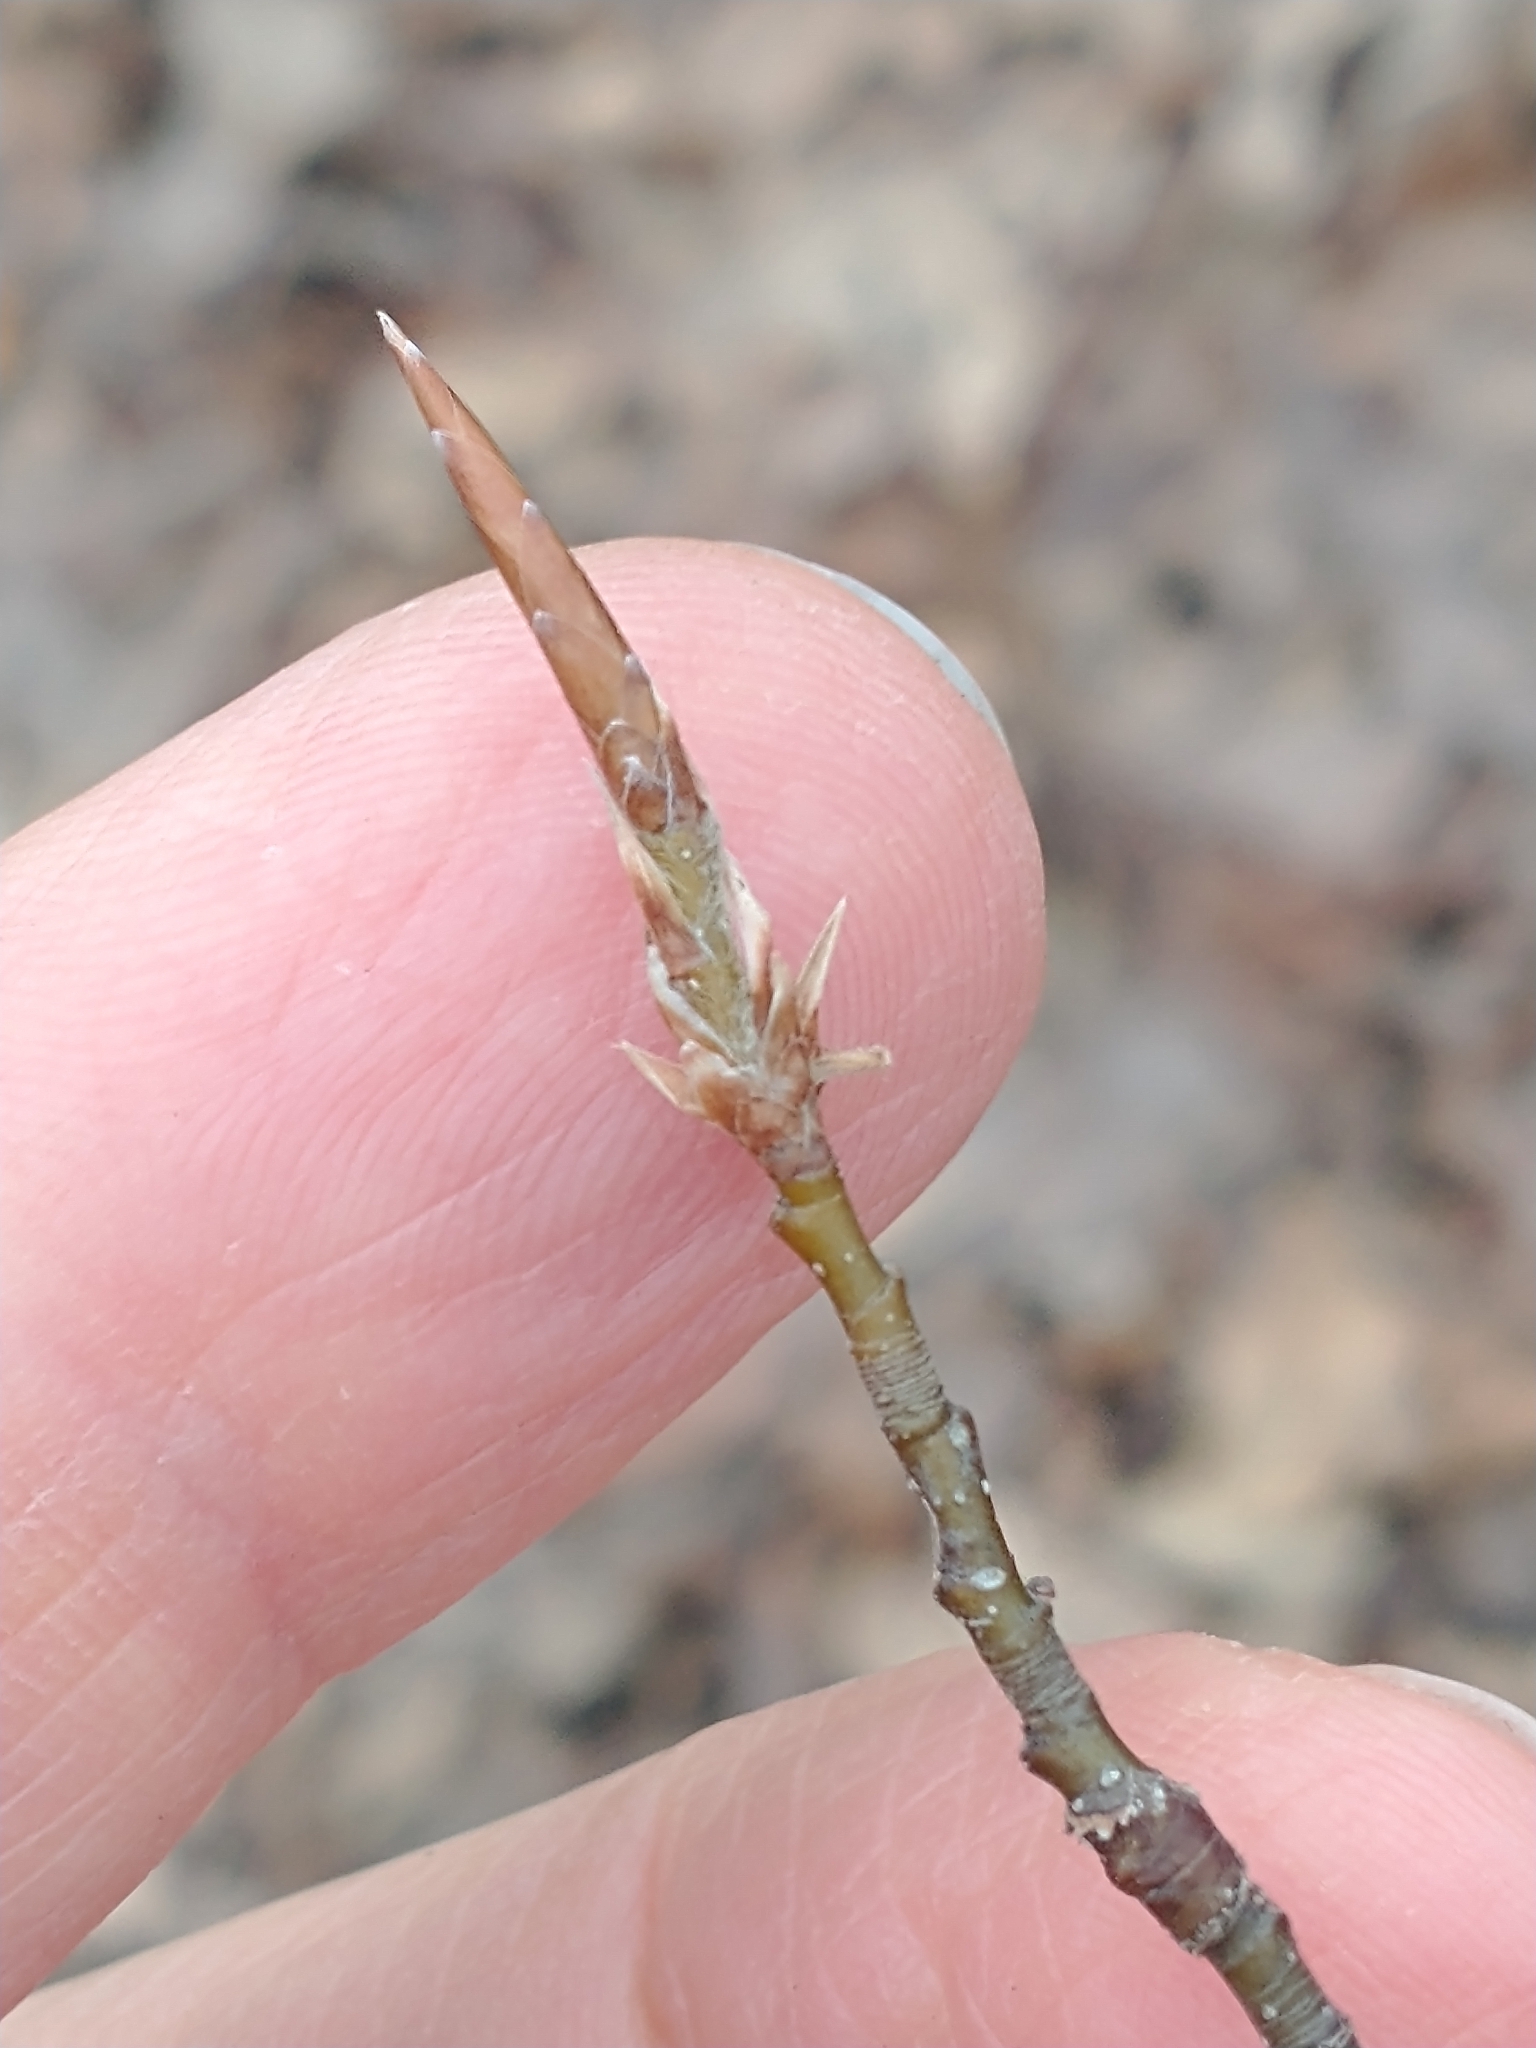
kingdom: Plantae
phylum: Tracheophyta
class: Magnoliopsida
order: Fagales
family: Fagaceae
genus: Fagus
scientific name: Fagus grandifolia
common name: American beech
